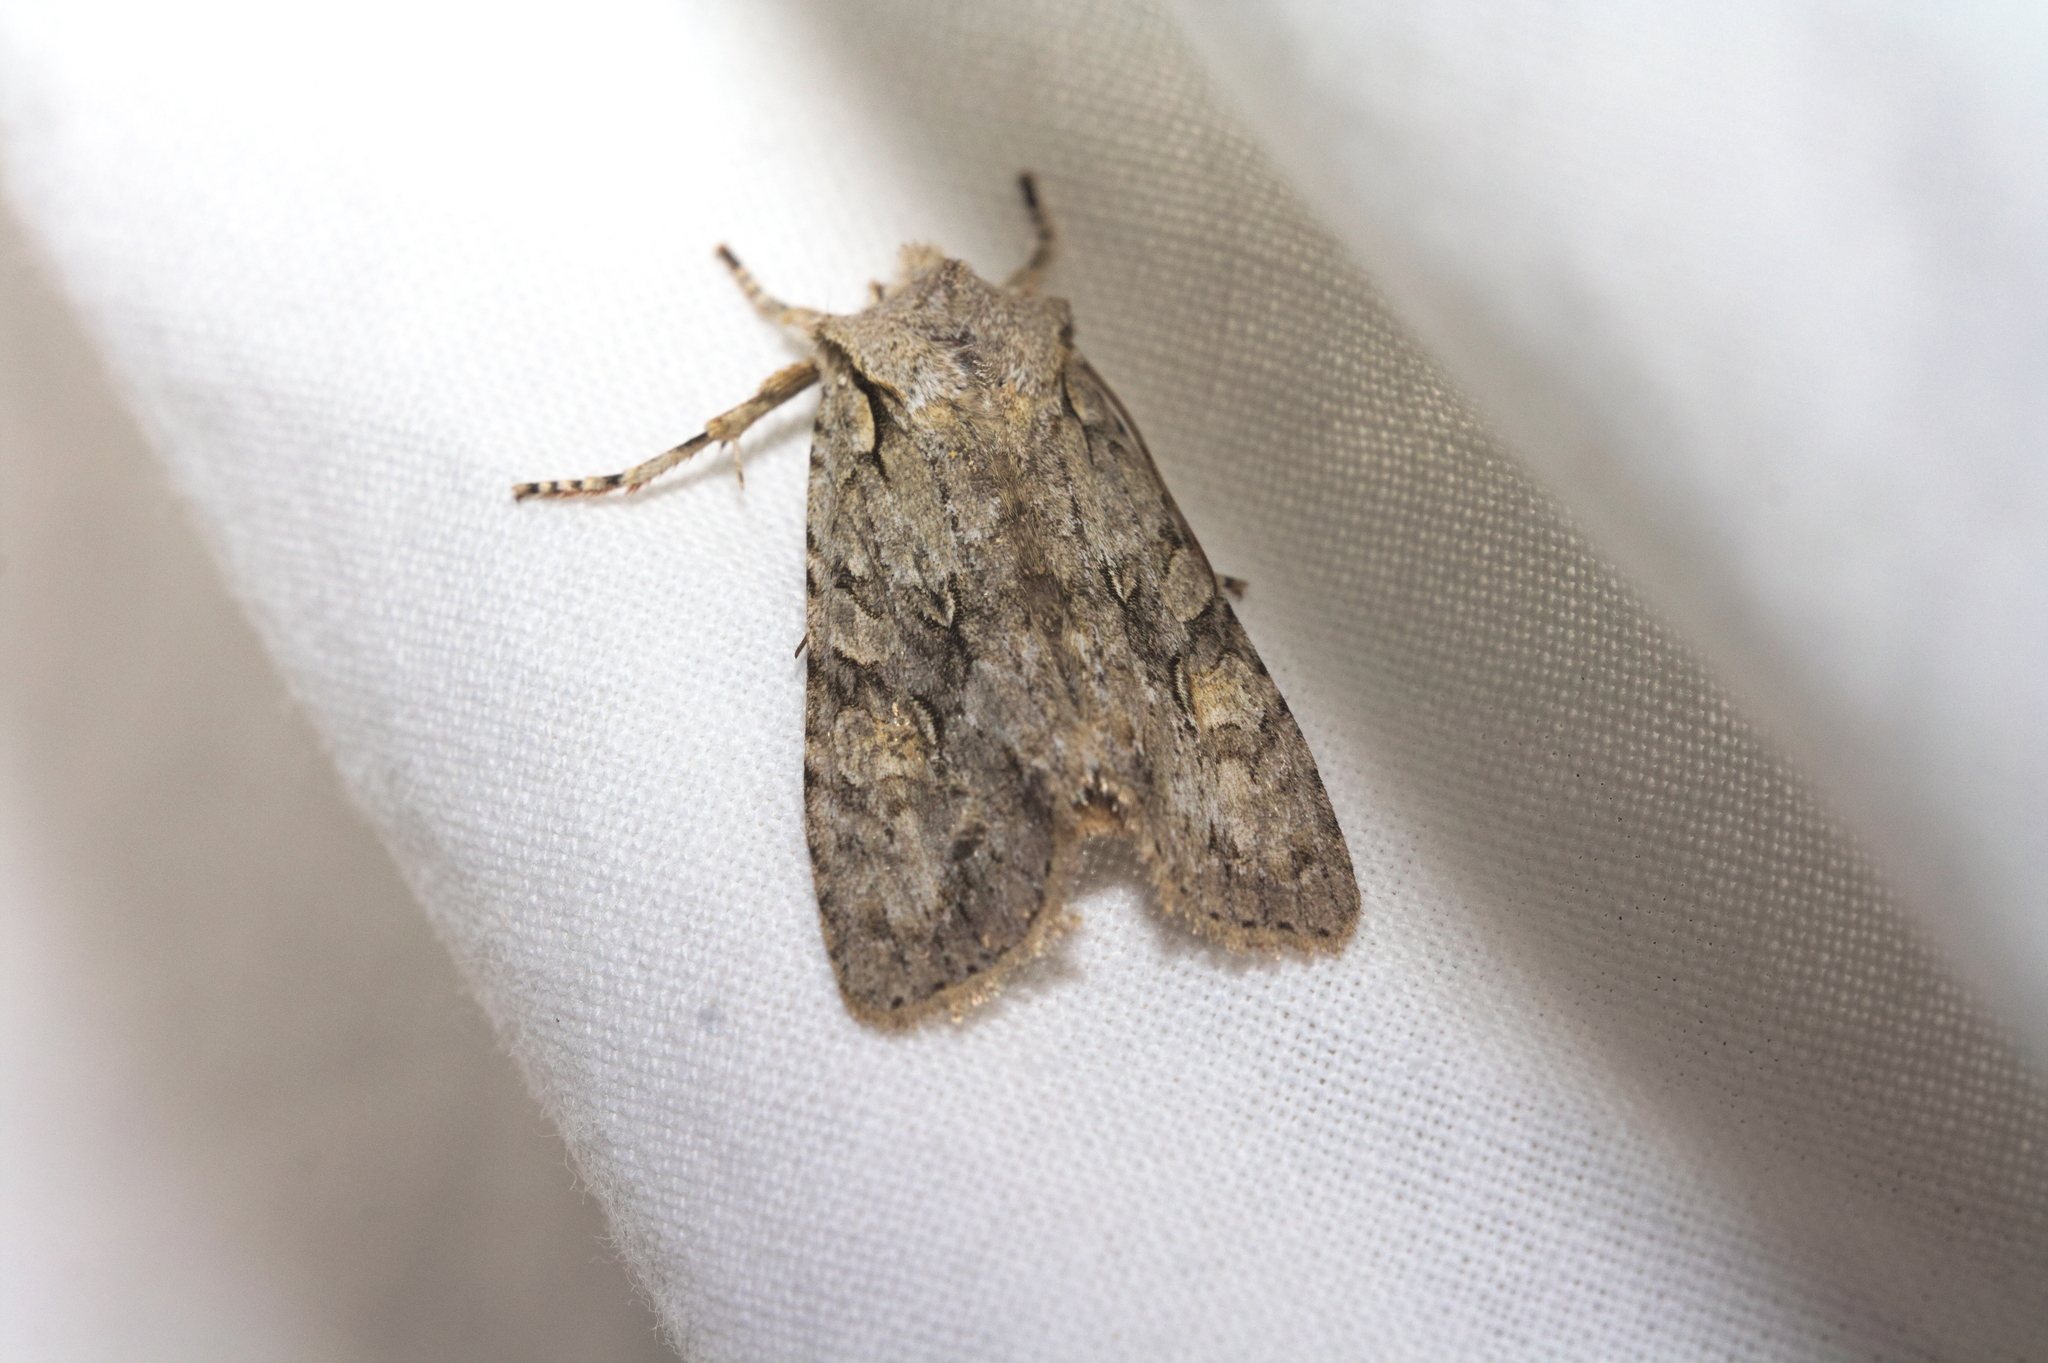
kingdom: Animalia
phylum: Arthropoda
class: Insecta
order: Lepidoptera
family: Noctuidae
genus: Lithophane
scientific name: Lithophane ornitopus
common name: Grey shoulder-knot
